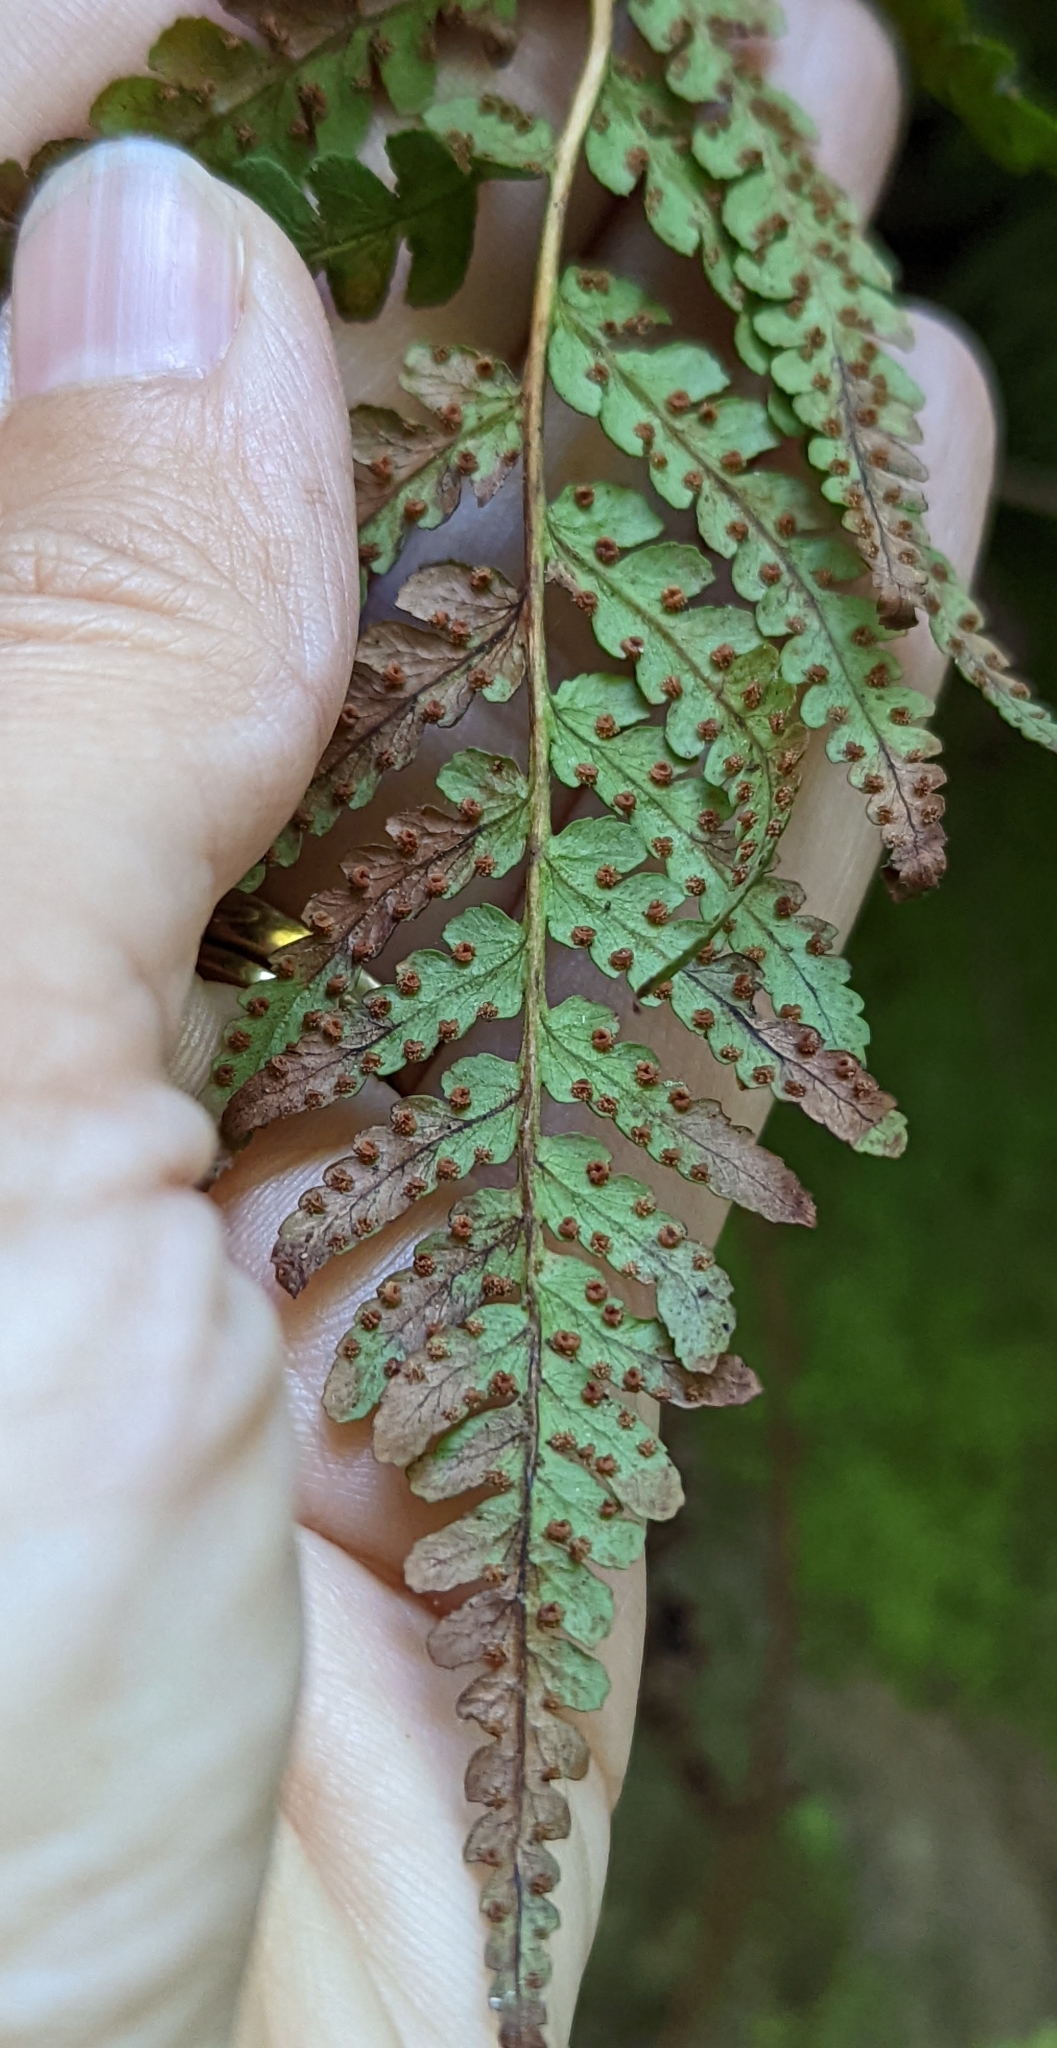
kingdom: Plantae
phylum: Tracheophyta
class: Polypodiopsida
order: Polypodiales
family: Dryopteridaceae
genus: Dryopteris
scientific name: Dryopteris marginalis
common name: Marginal wood fern
